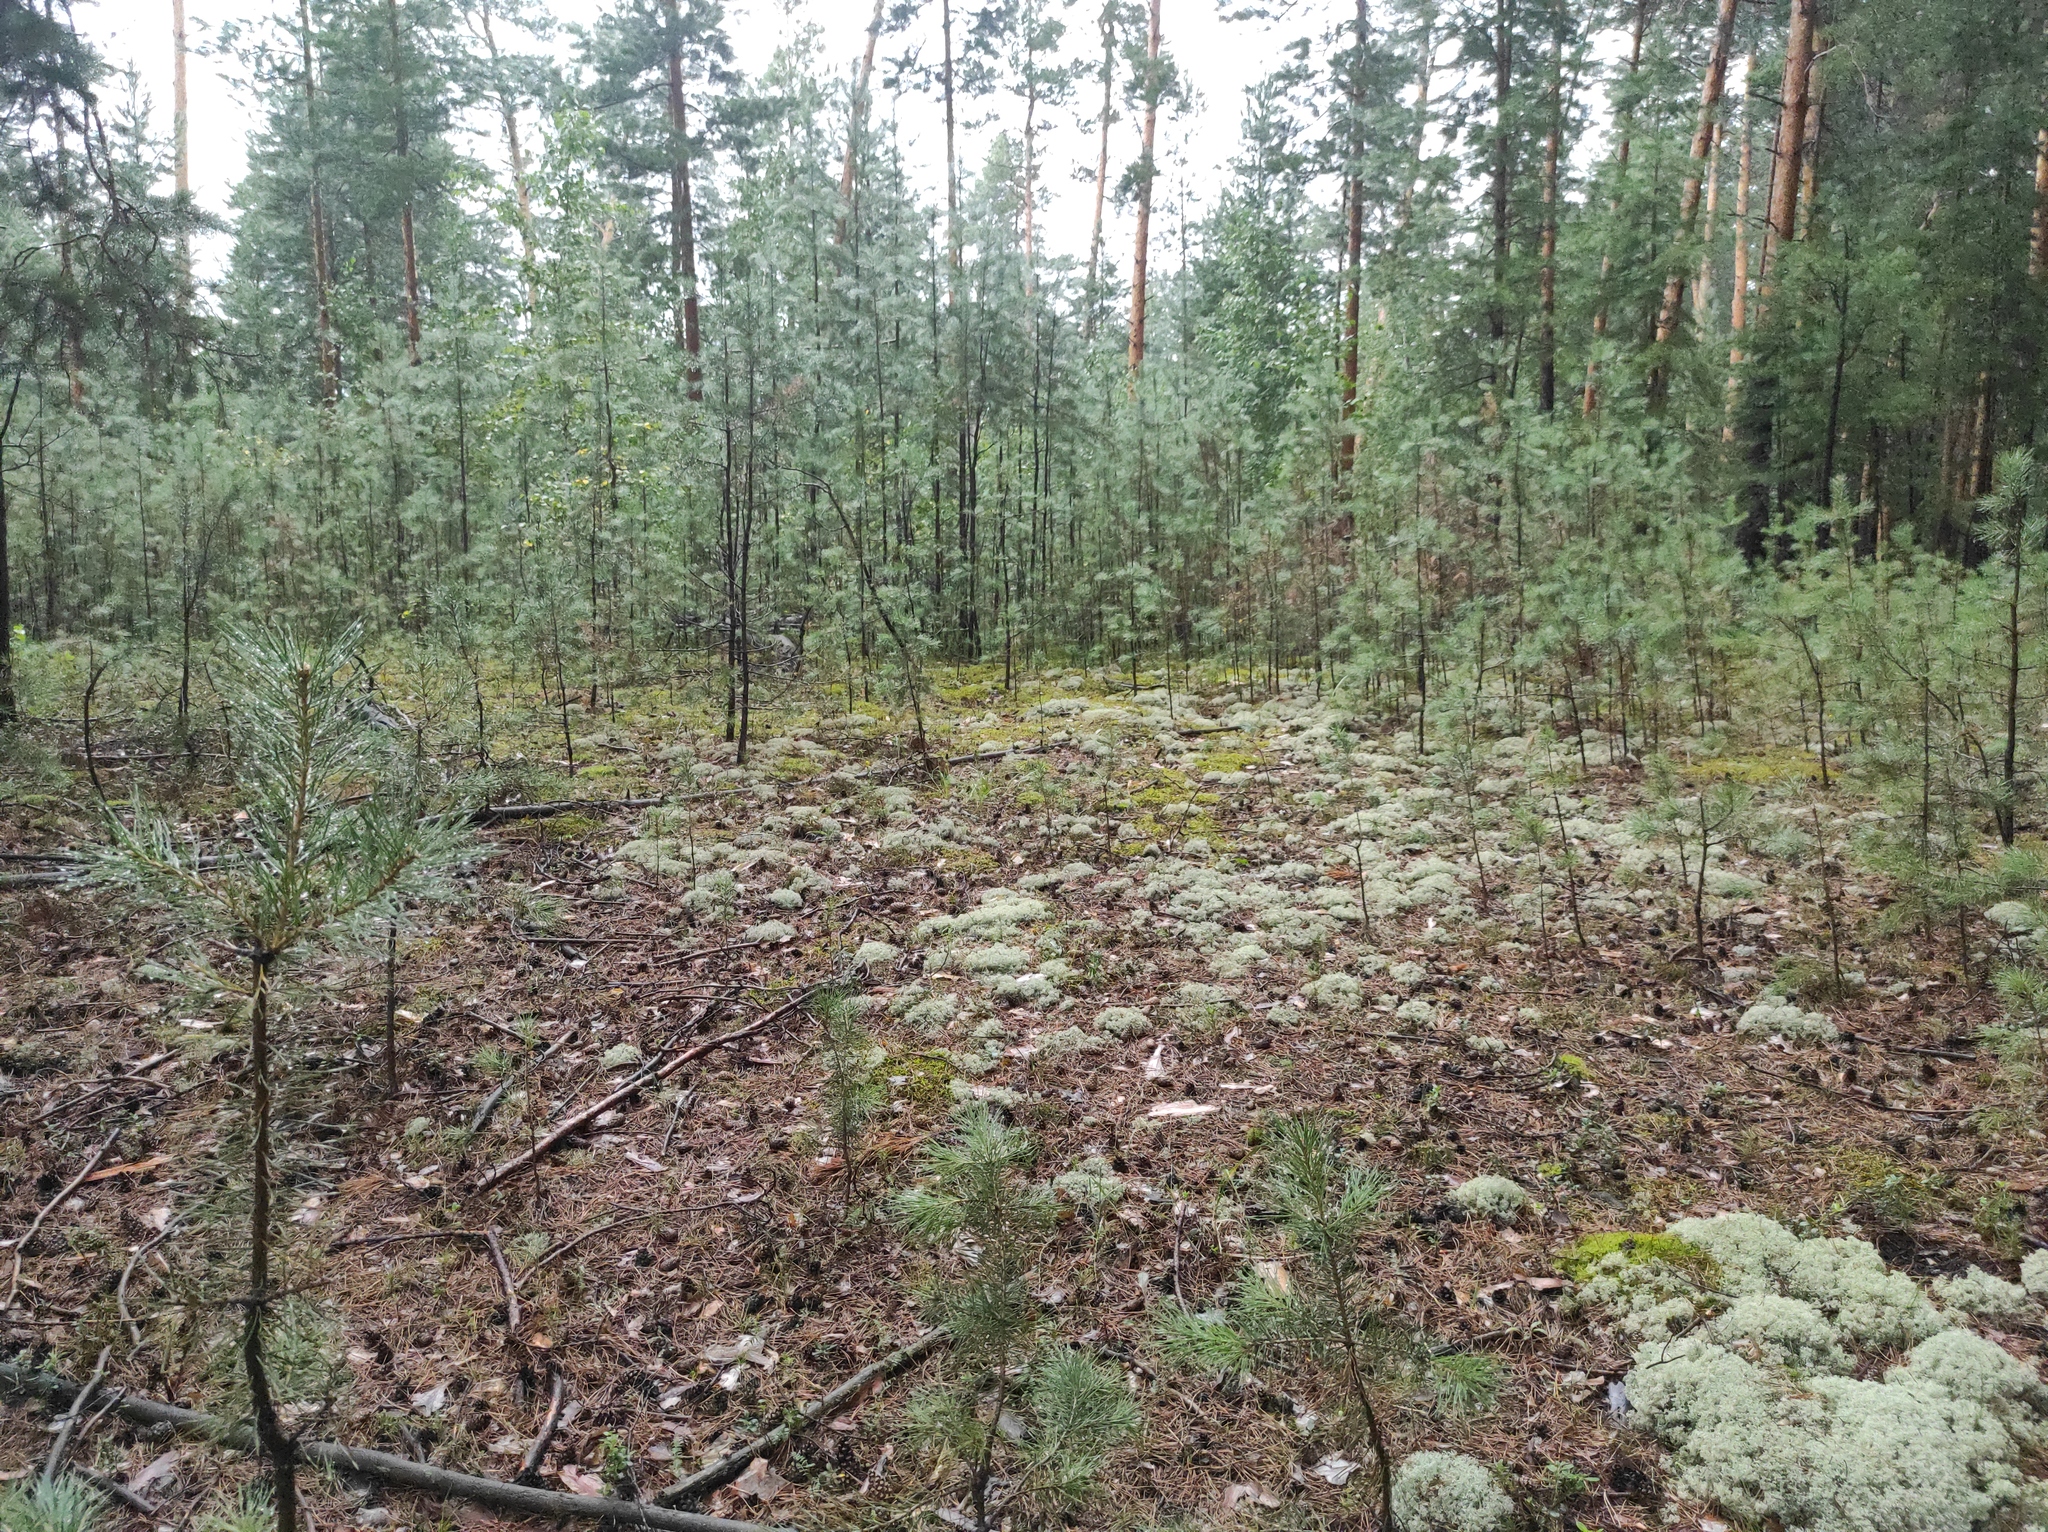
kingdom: Plantae
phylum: Tracheophyta
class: Pinopsida
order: Pinales
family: Pinaceae
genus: Pinus
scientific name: Pinus sylvestris
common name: Scots pine
